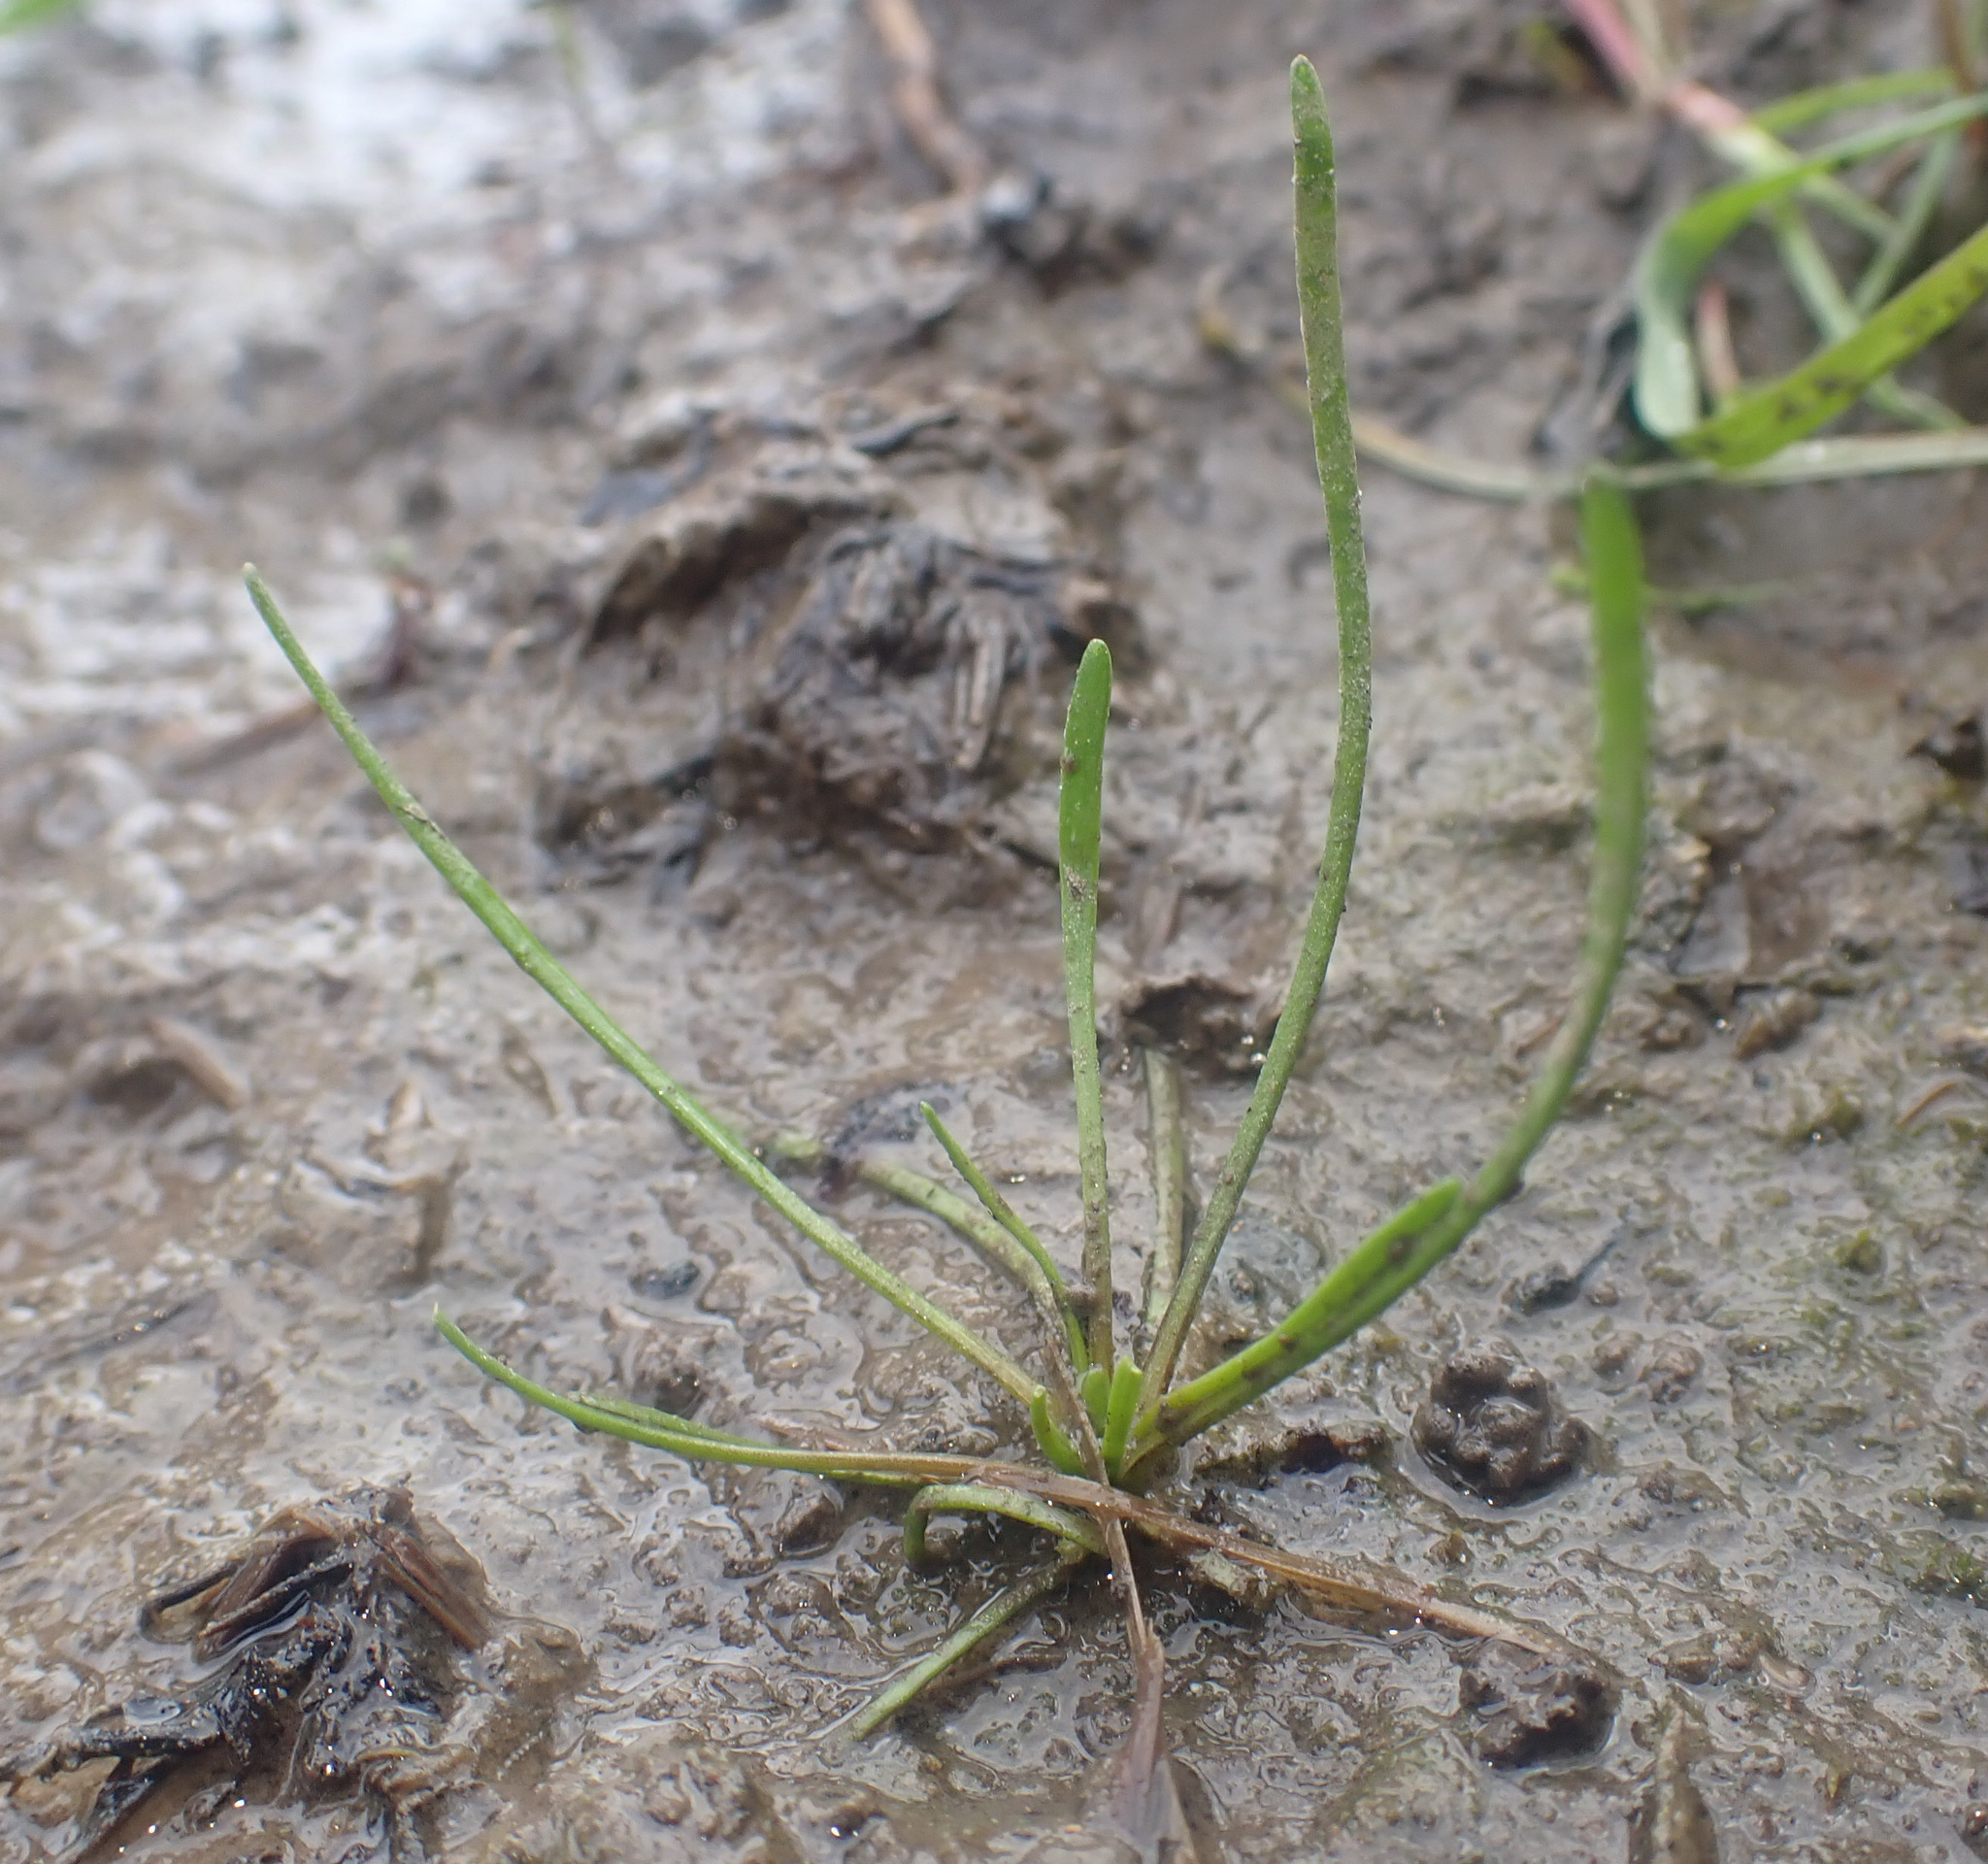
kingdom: Plantae
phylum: Tracheophyta
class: Magnoliopsida
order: Ranunculales
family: Ranunculaceae
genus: Myosurus
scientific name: Myosurus minimus
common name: Mousetail
